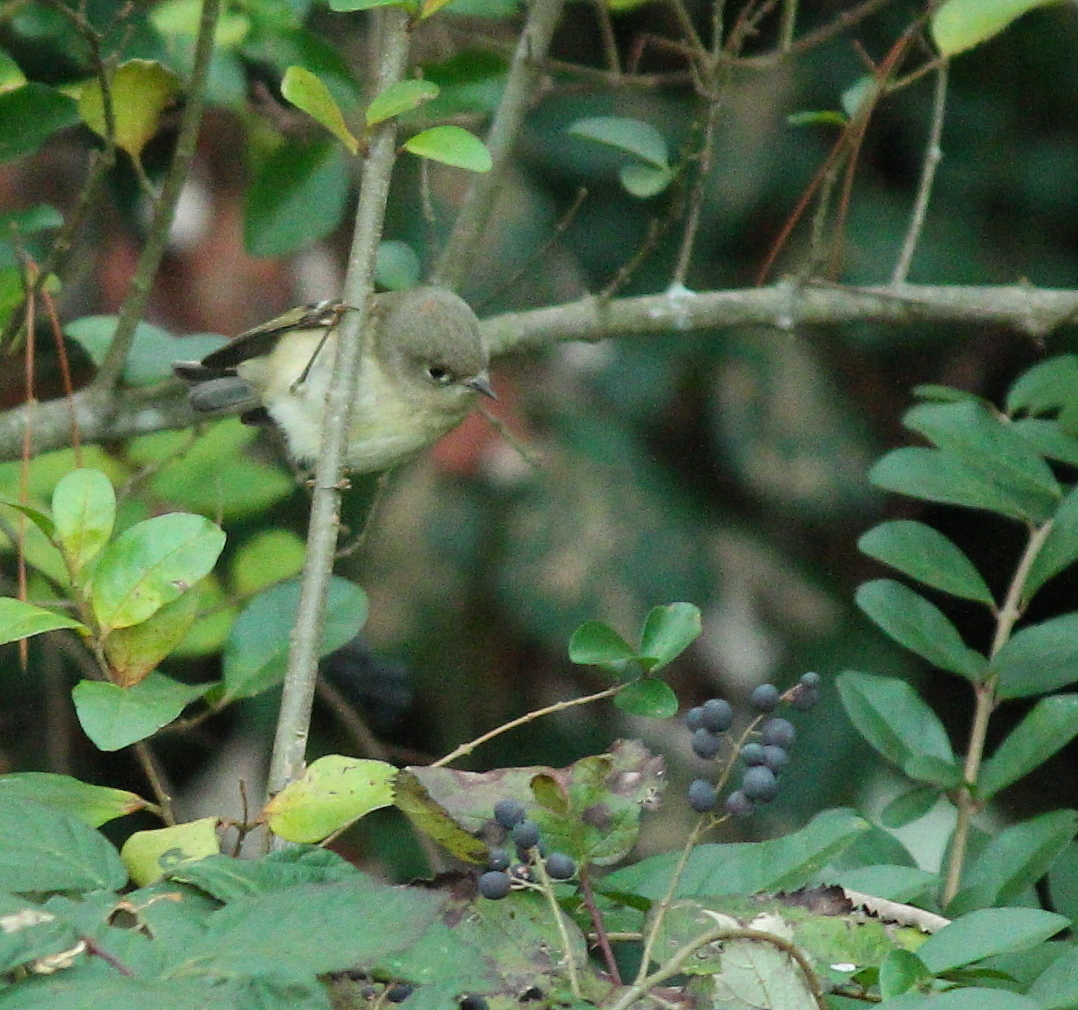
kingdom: Animalia
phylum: Chordata
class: Aves
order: Passeriformes
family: Regulidae
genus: Regulus
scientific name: Regulus calendula
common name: Ruby-crowned kinglet
